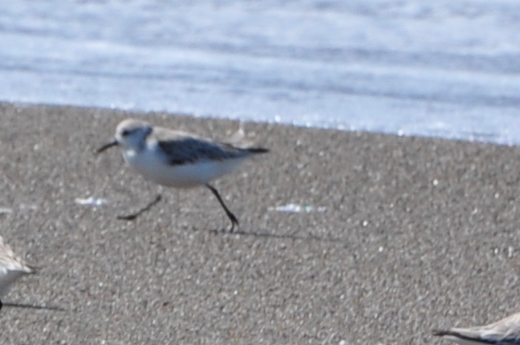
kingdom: Animalia
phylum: Chordata
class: Aves
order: Charadriiformes
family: Scolopacidae
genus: Calidris
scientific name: Calidris alba
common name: Sanderling
